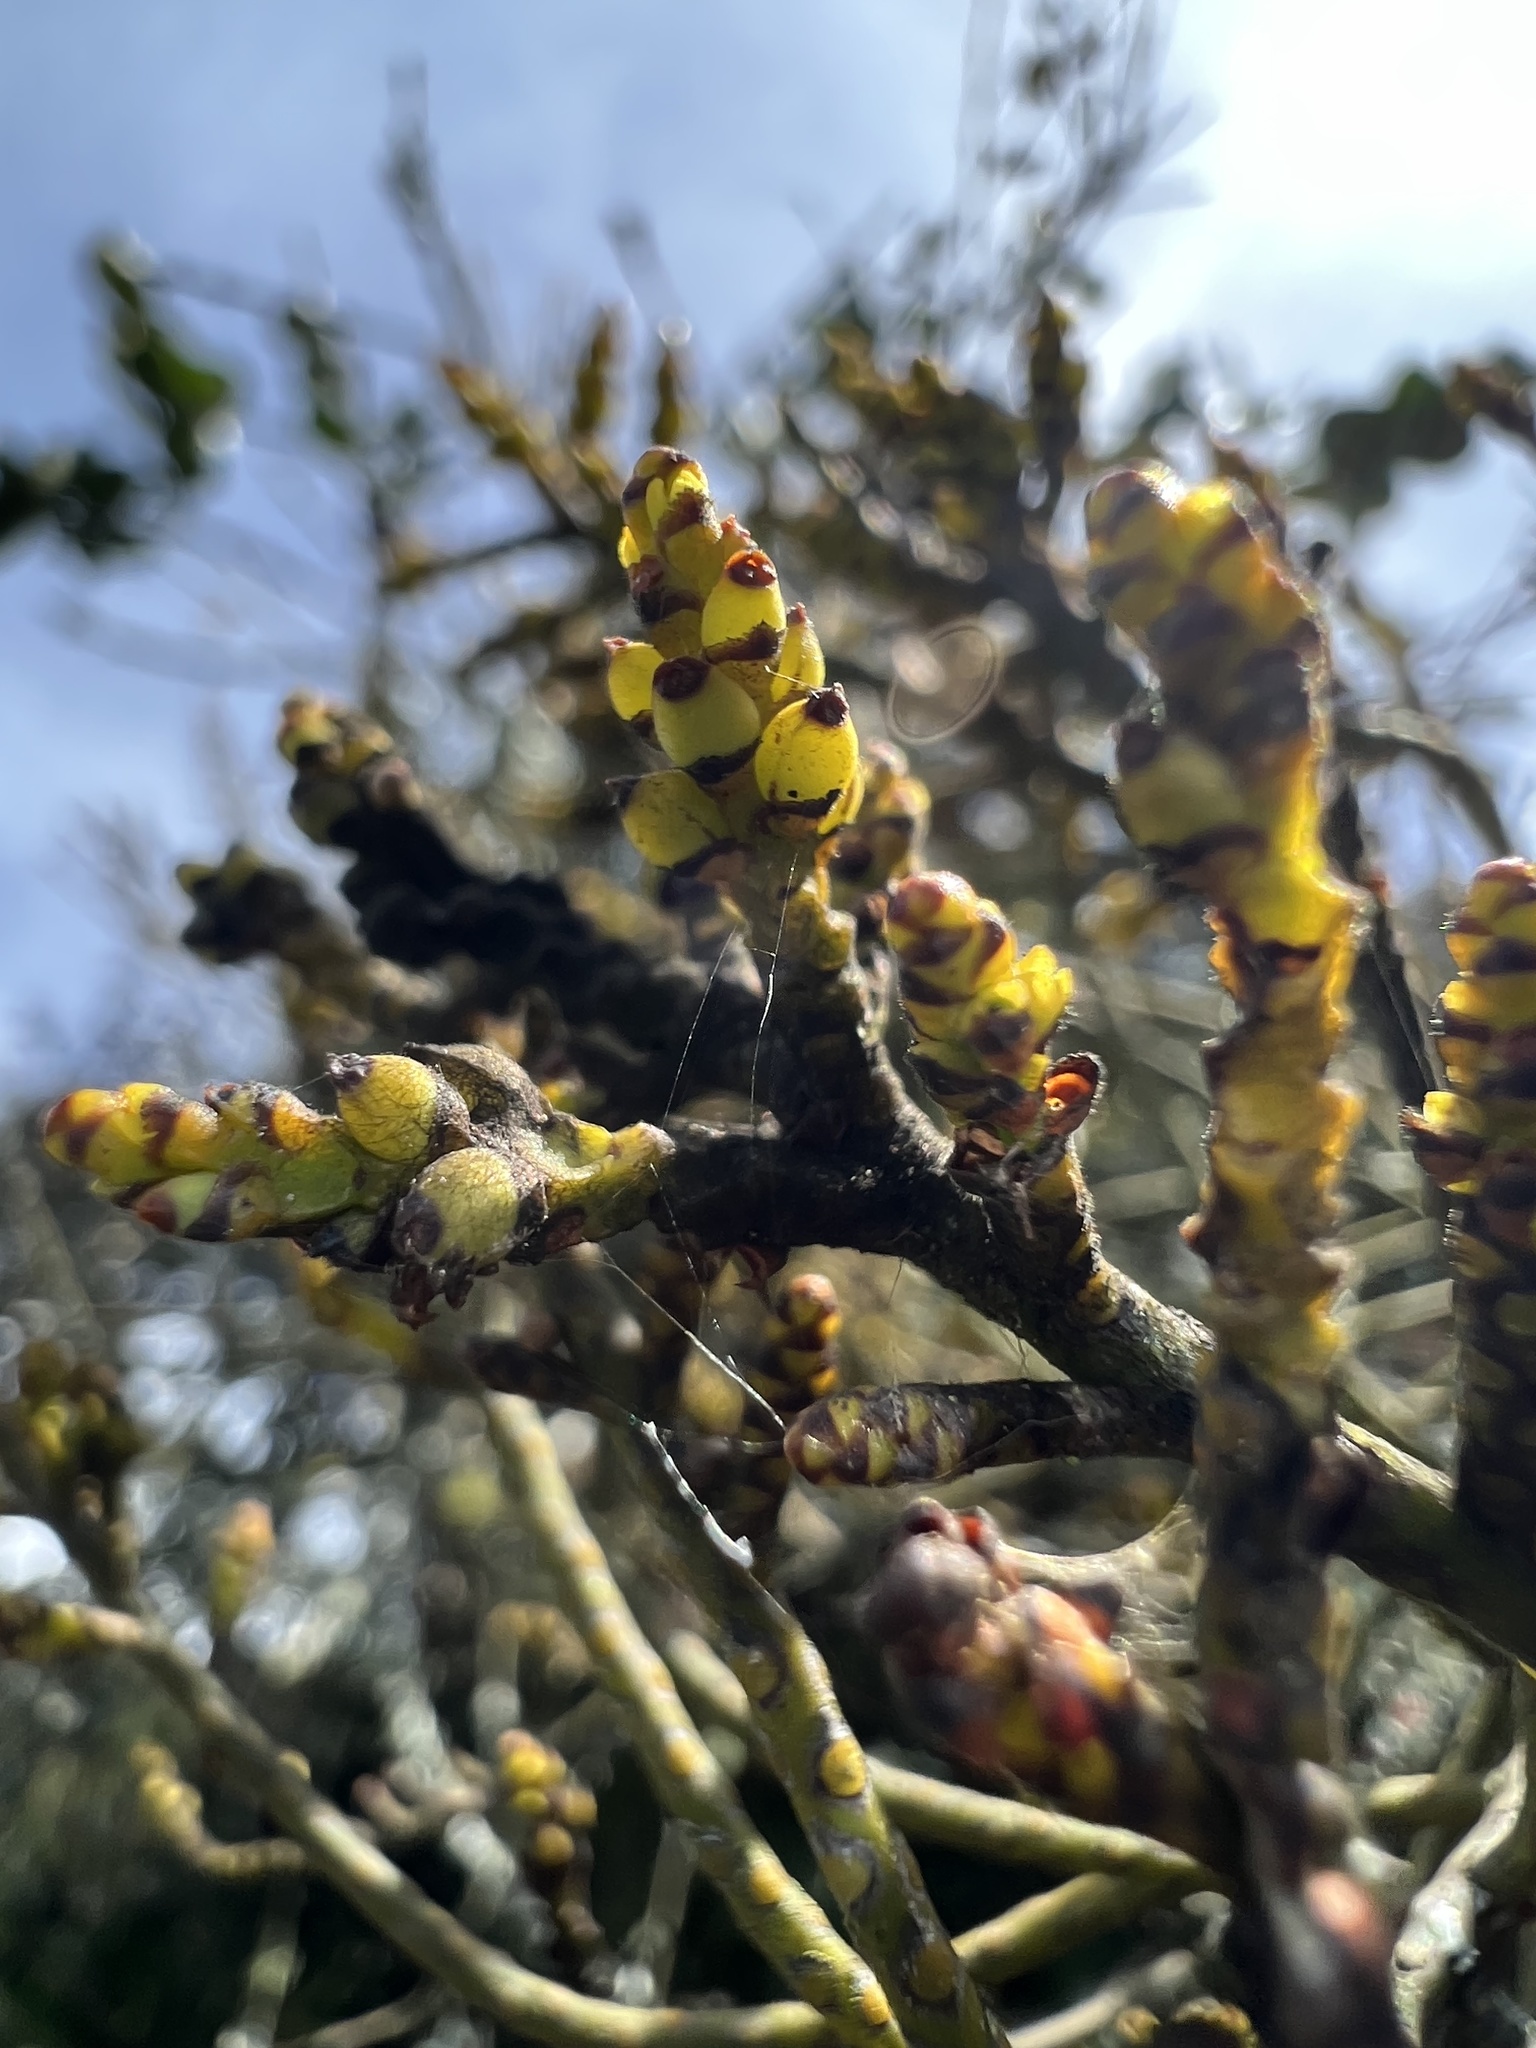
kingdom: Plantae
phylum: Tracheophyta
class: Magnoliopsida
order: Santalales
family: Santalaceae
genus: Eubrachion
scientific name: Eubrachion ambiguum
